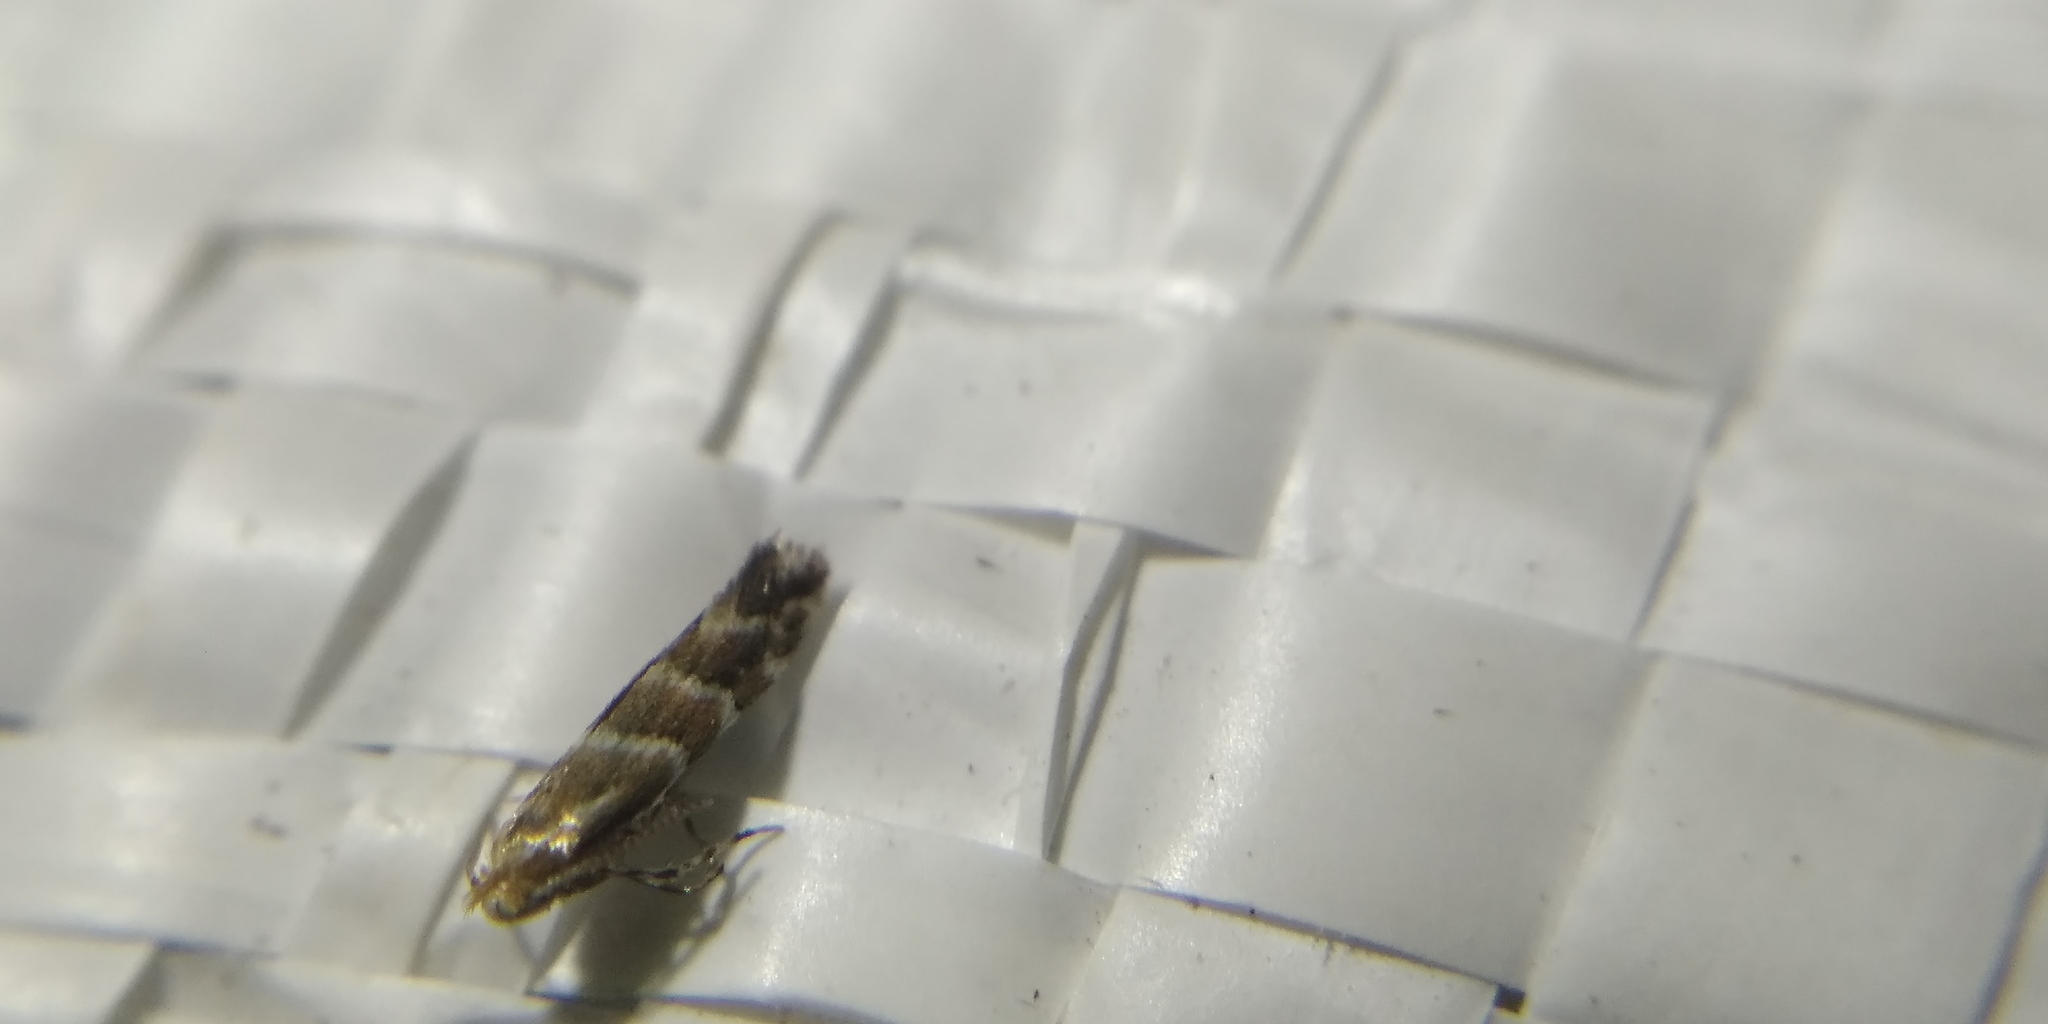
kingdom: Animalia
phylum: Arthropoda
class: Insecta
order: Lepidoptera
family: Gracillariidae
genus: Cameraria
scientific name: Cameraria ohridella
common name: Horse-chestnut leaf-miner
